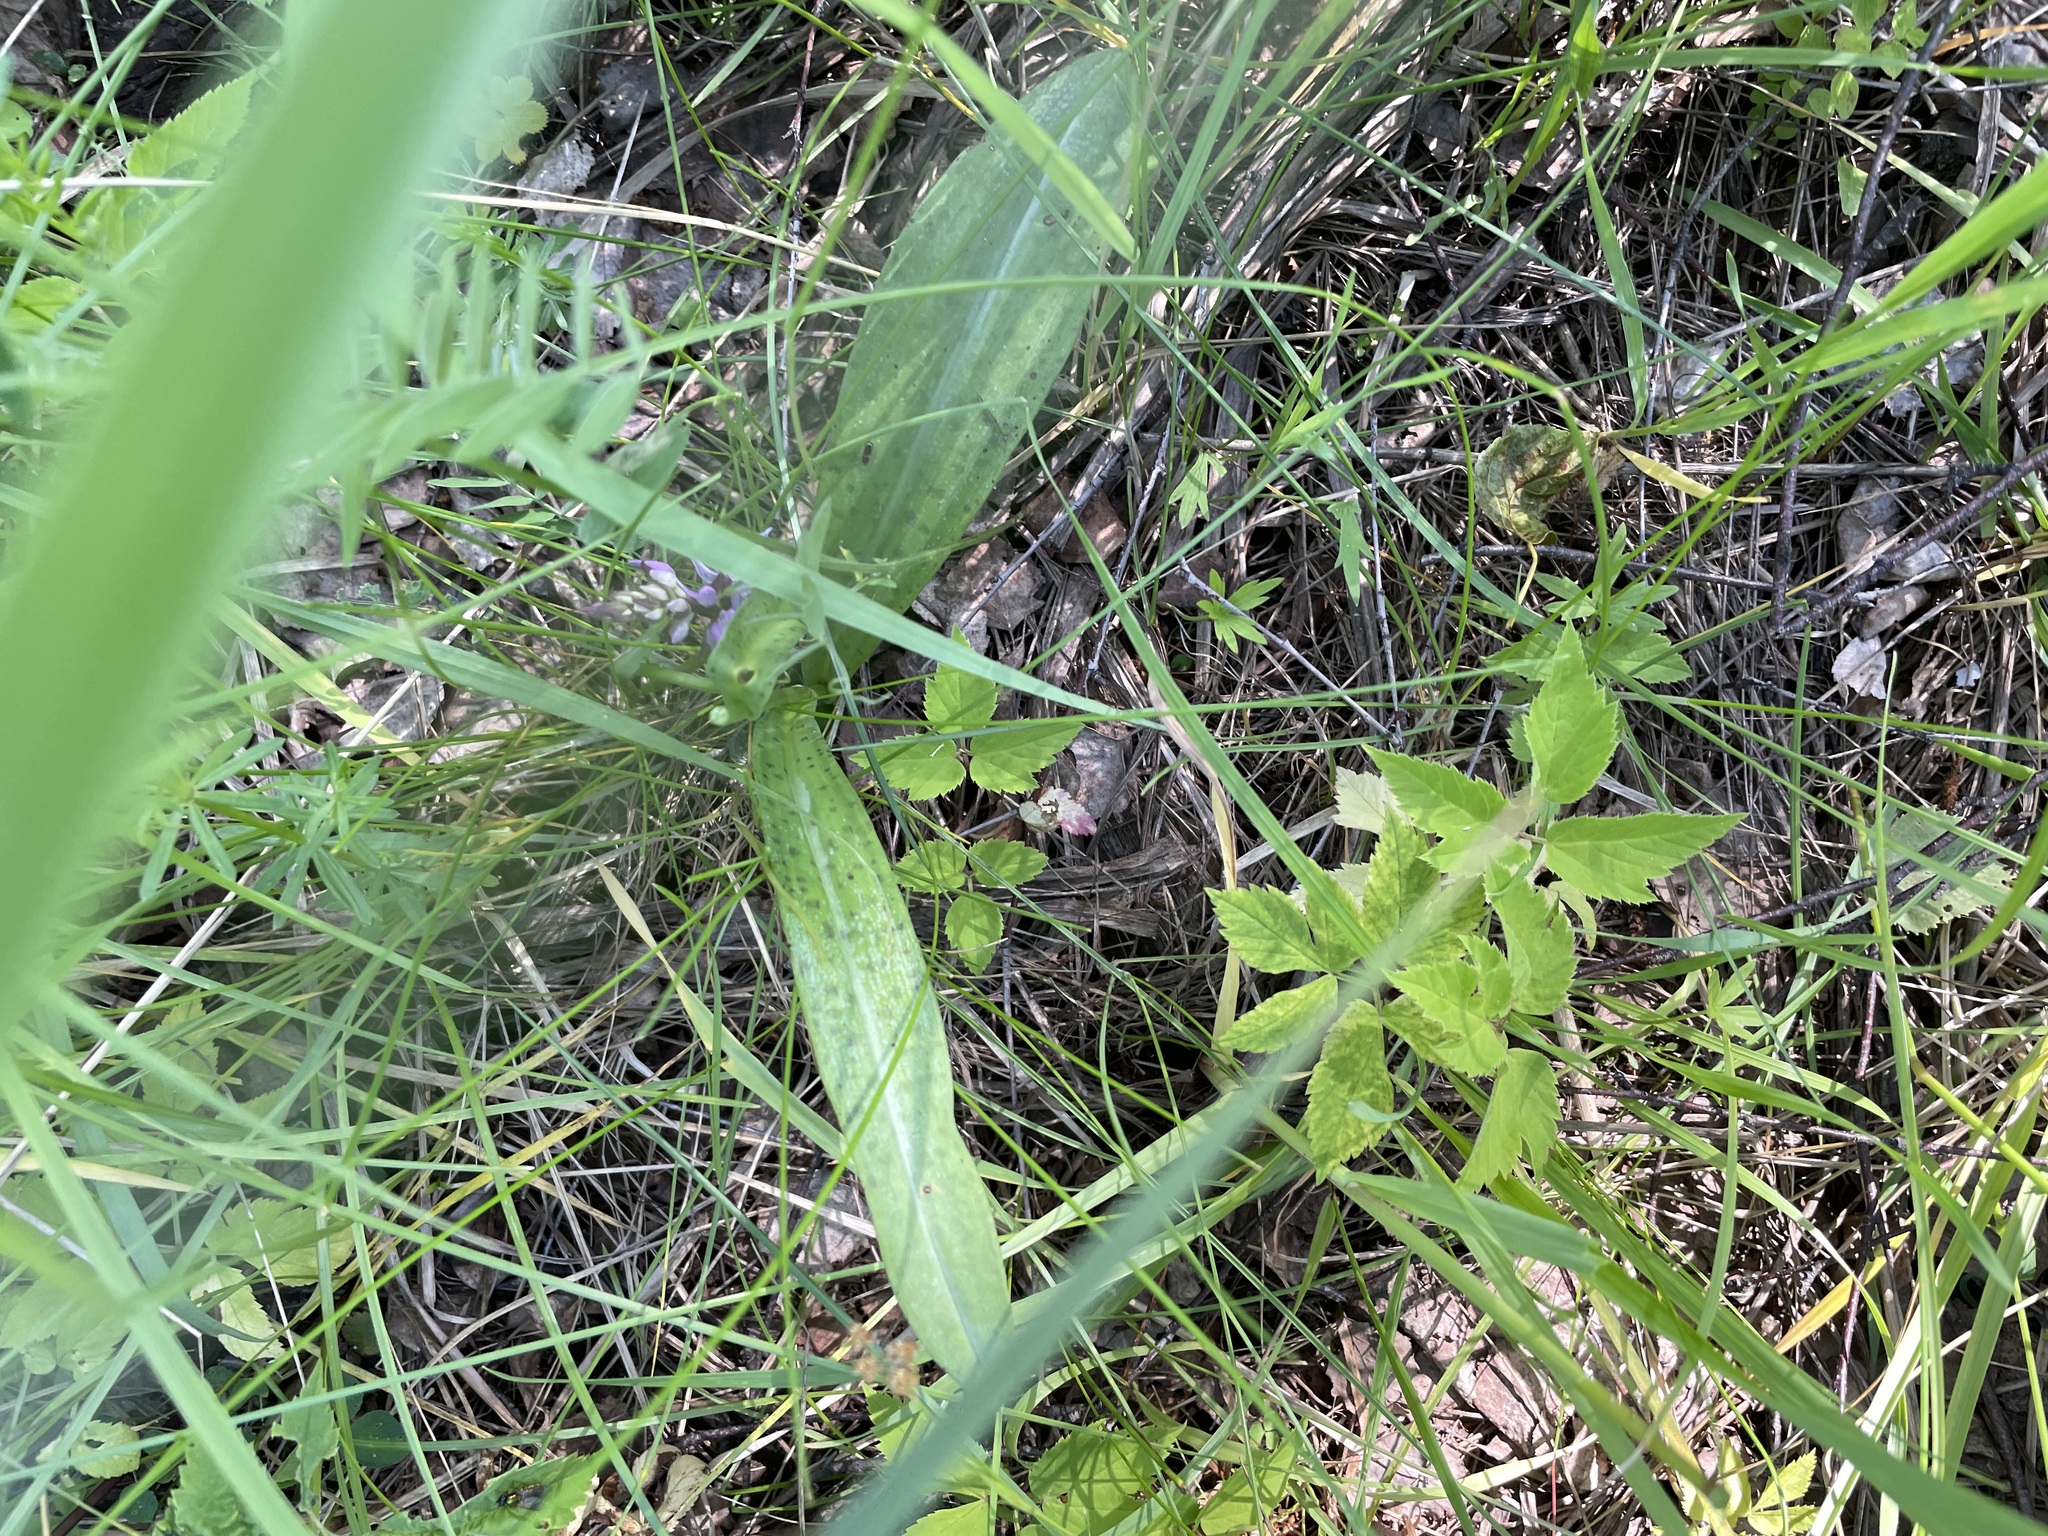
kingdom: Plantae
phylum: Tracheophyta
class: Liliopsida
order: Asparagales
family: Orchidaceae
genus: Dactylorhiza
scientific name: Dactylorhiza maculata
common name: Heath spotted-orchid
